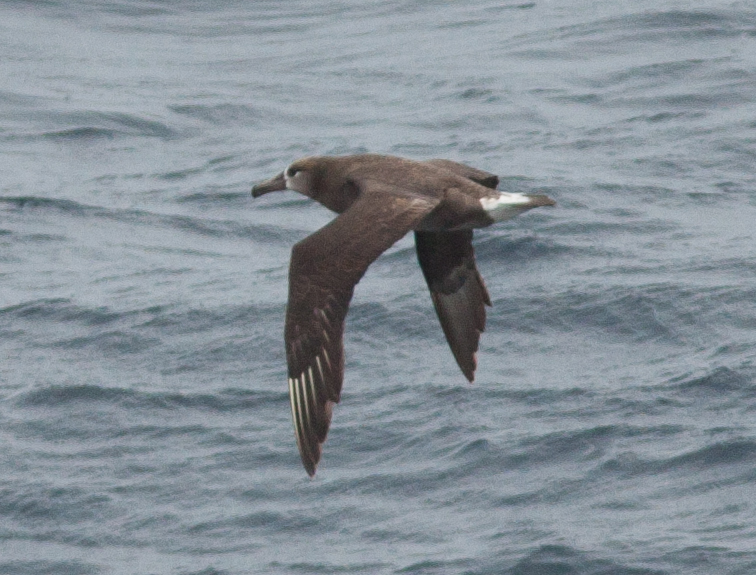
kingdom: Animalia
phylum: Chordata
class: Aves
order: Procellariiformes
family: Diomedeidae
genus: Phoebastria
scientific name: Phoebastria nigripes
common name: Black-footed albatross
